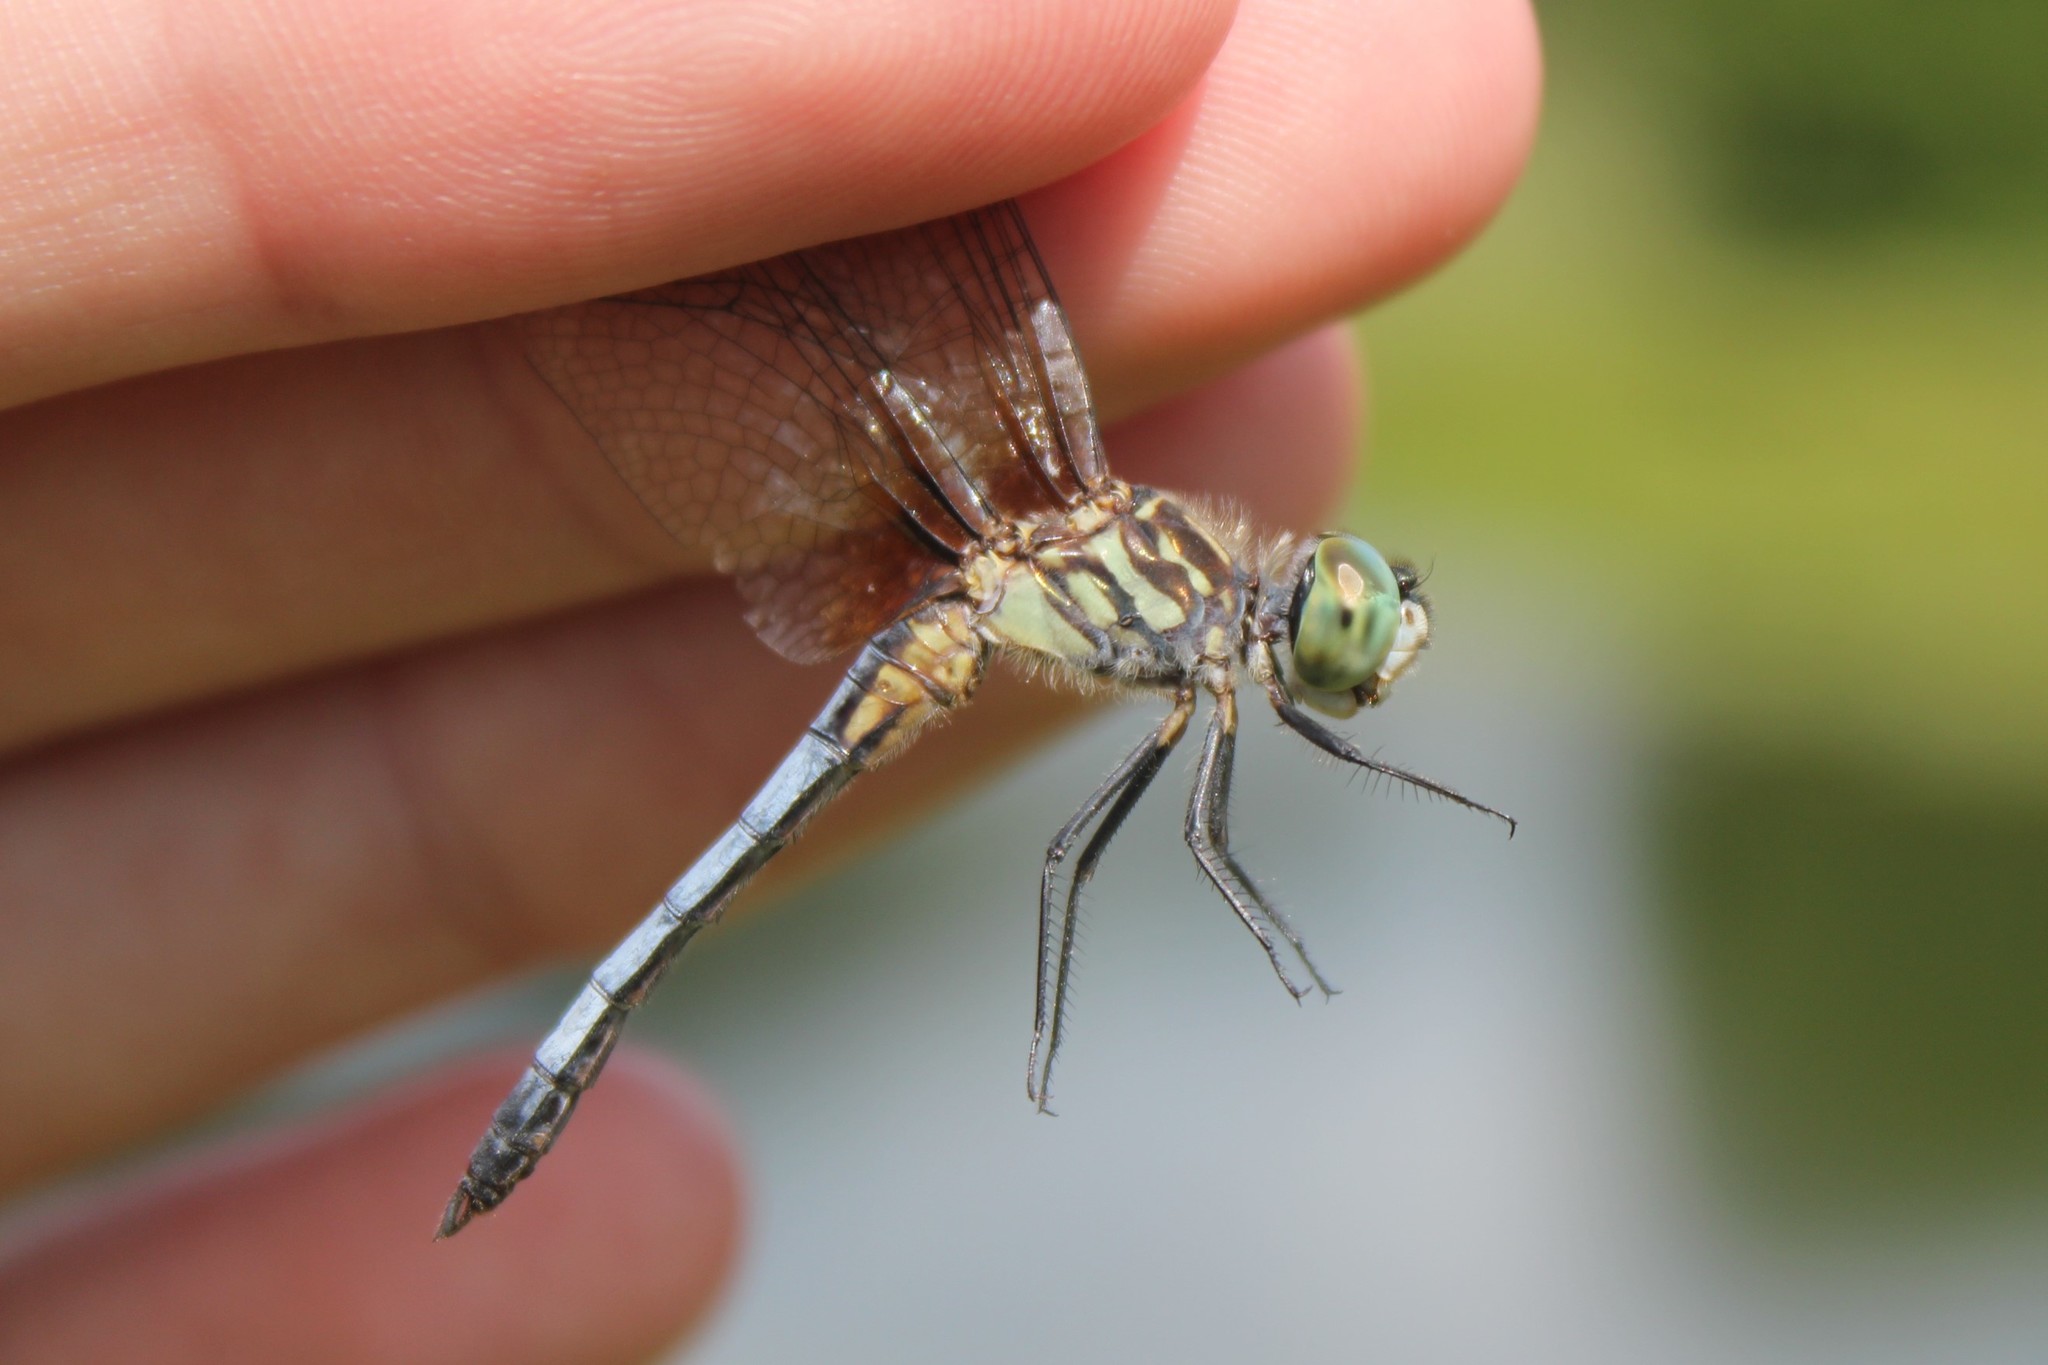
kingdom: Animalia
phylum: Arthropoda
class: Insecta
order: Odonata
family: Libellulidae
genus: Pachydiplax
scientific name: Pachydiplax longipennis
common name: Blue dasher
